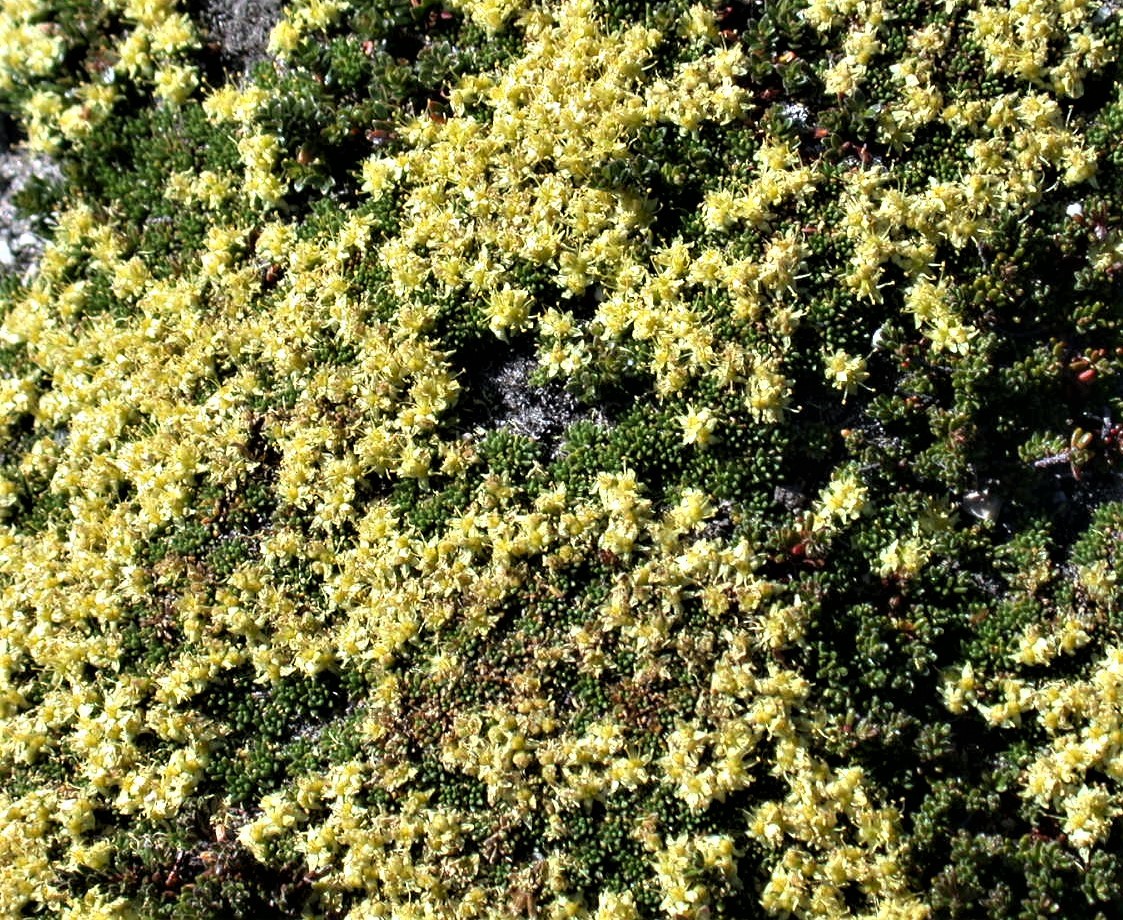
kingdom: Plantae
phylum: Tracheophyta
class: Magnoliopsida
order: Apiales
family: Apiaceae
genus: Azorella
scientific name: Azorella monantha
